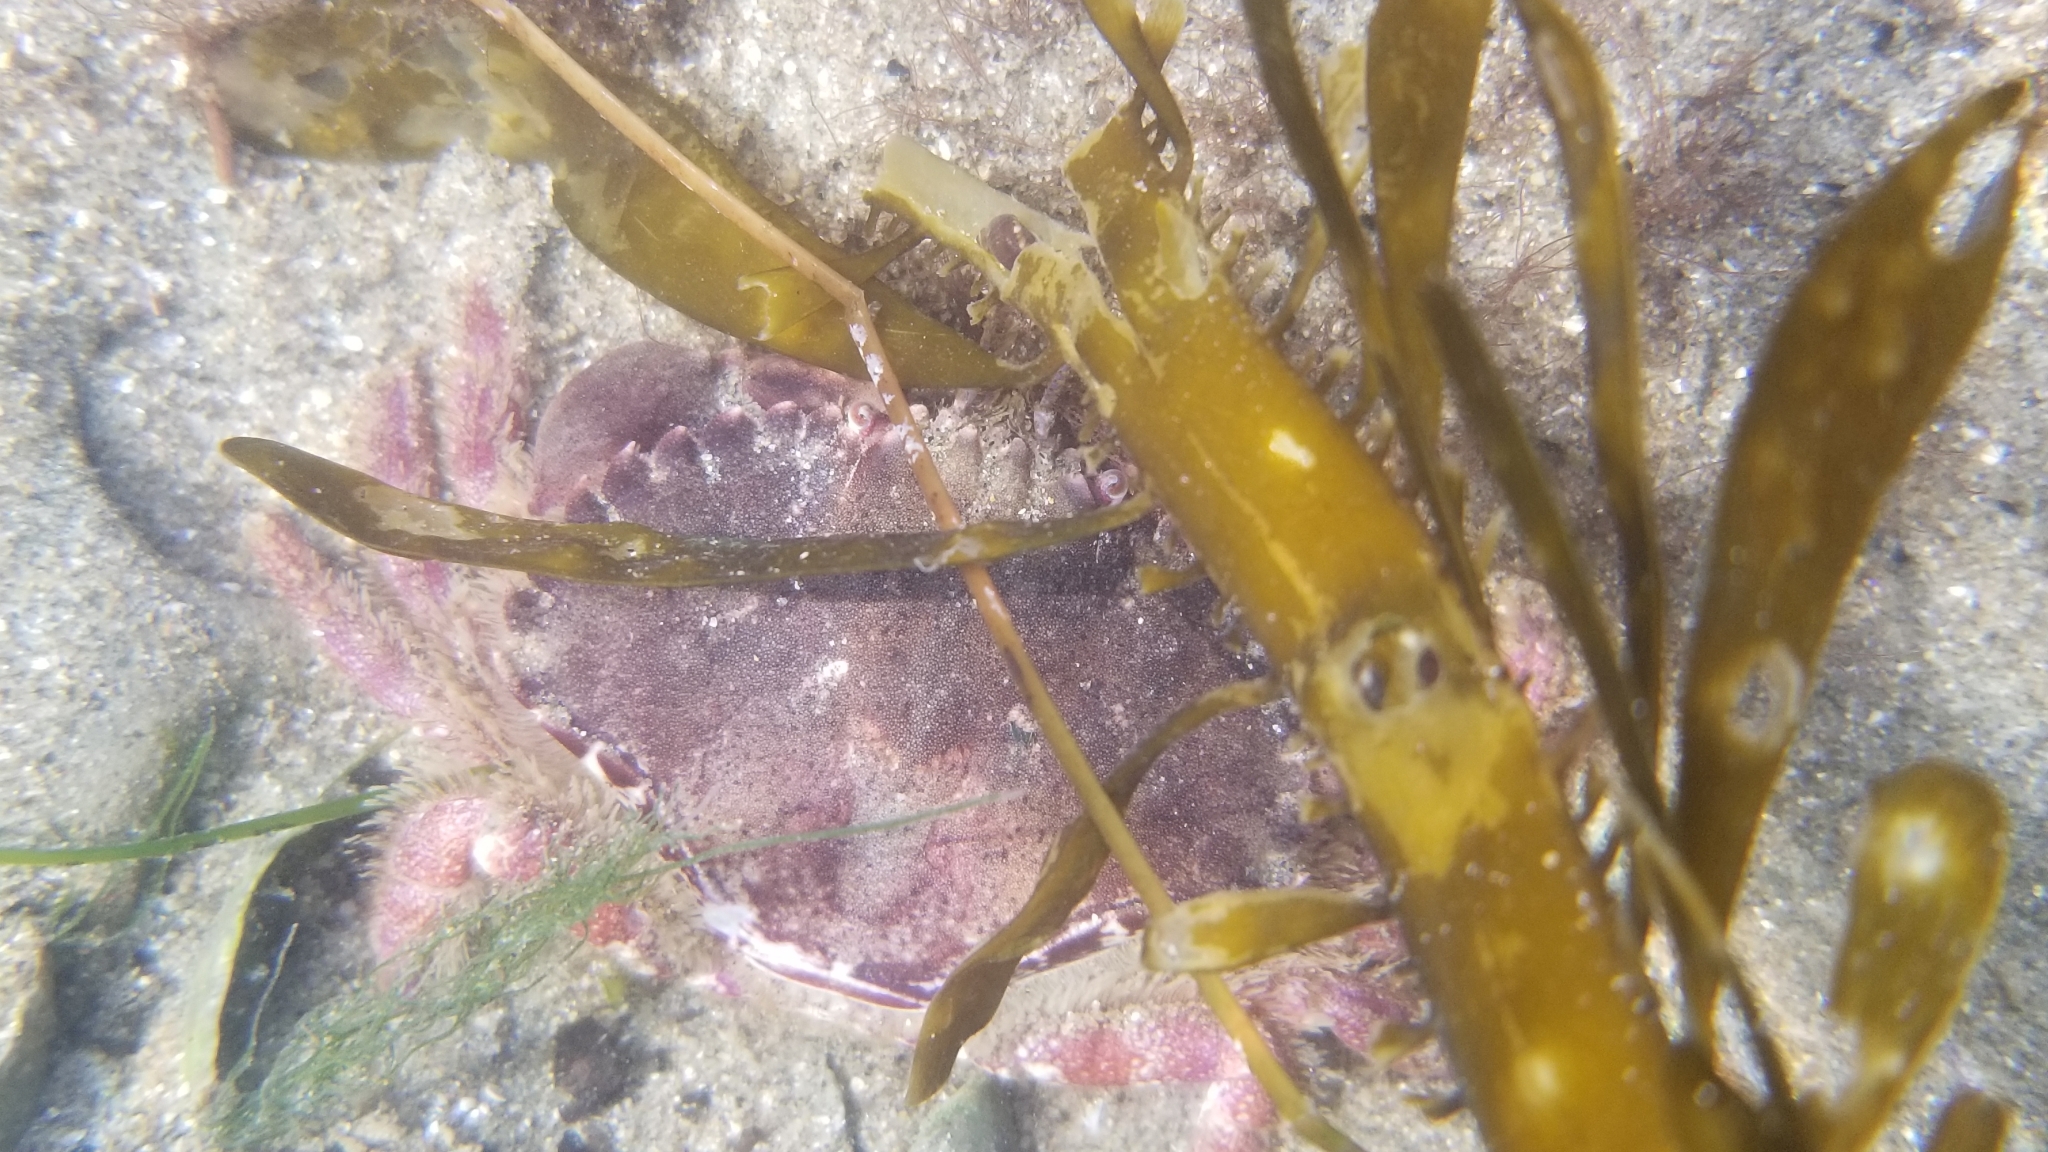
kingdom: Animalia
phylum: Arthropoda
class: Malacostraca
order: Decapoda
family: Cancridae
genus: Romaleon
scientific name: Romaleon antennarium
